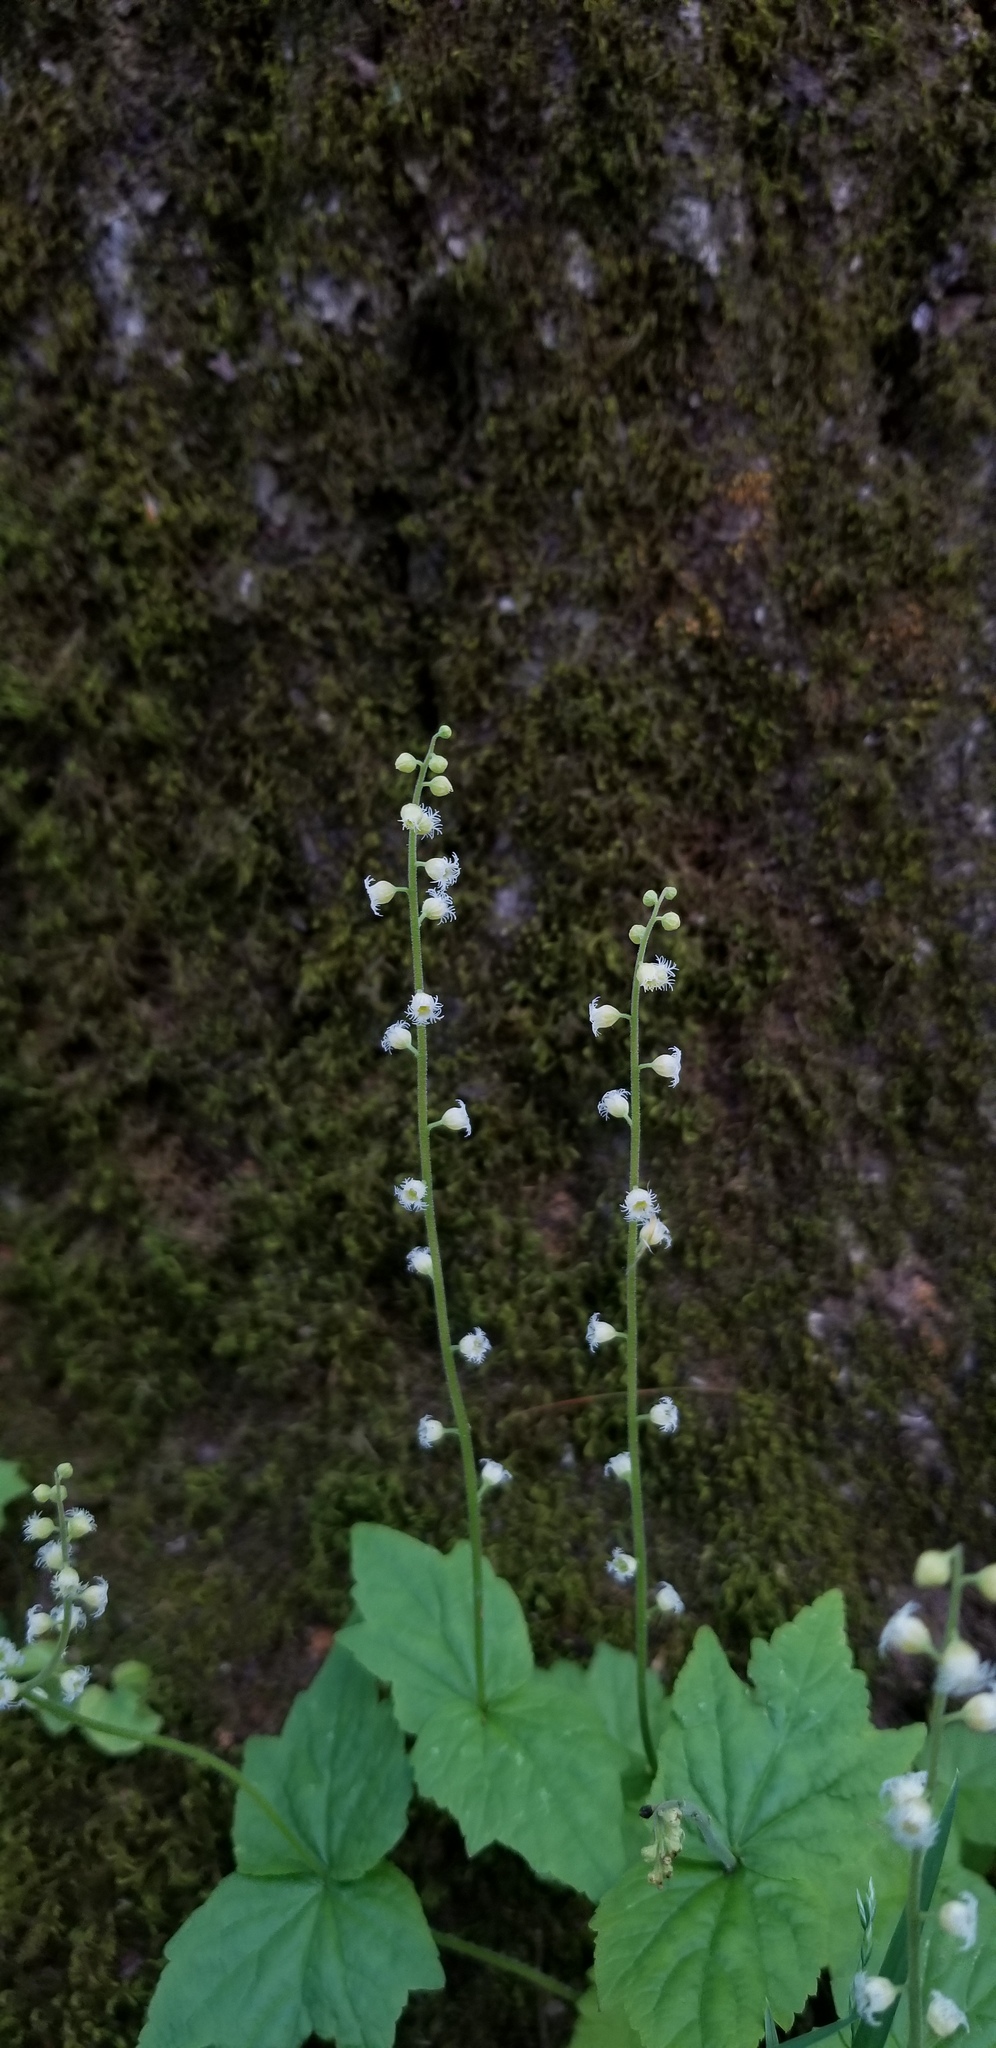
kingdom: Plantae
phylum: Tracheophyta
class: Magnoliopsida
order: Saxifragales
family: Saxifragaceae
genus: Mitella
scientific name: Mitella diphylla
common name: Coolwort
